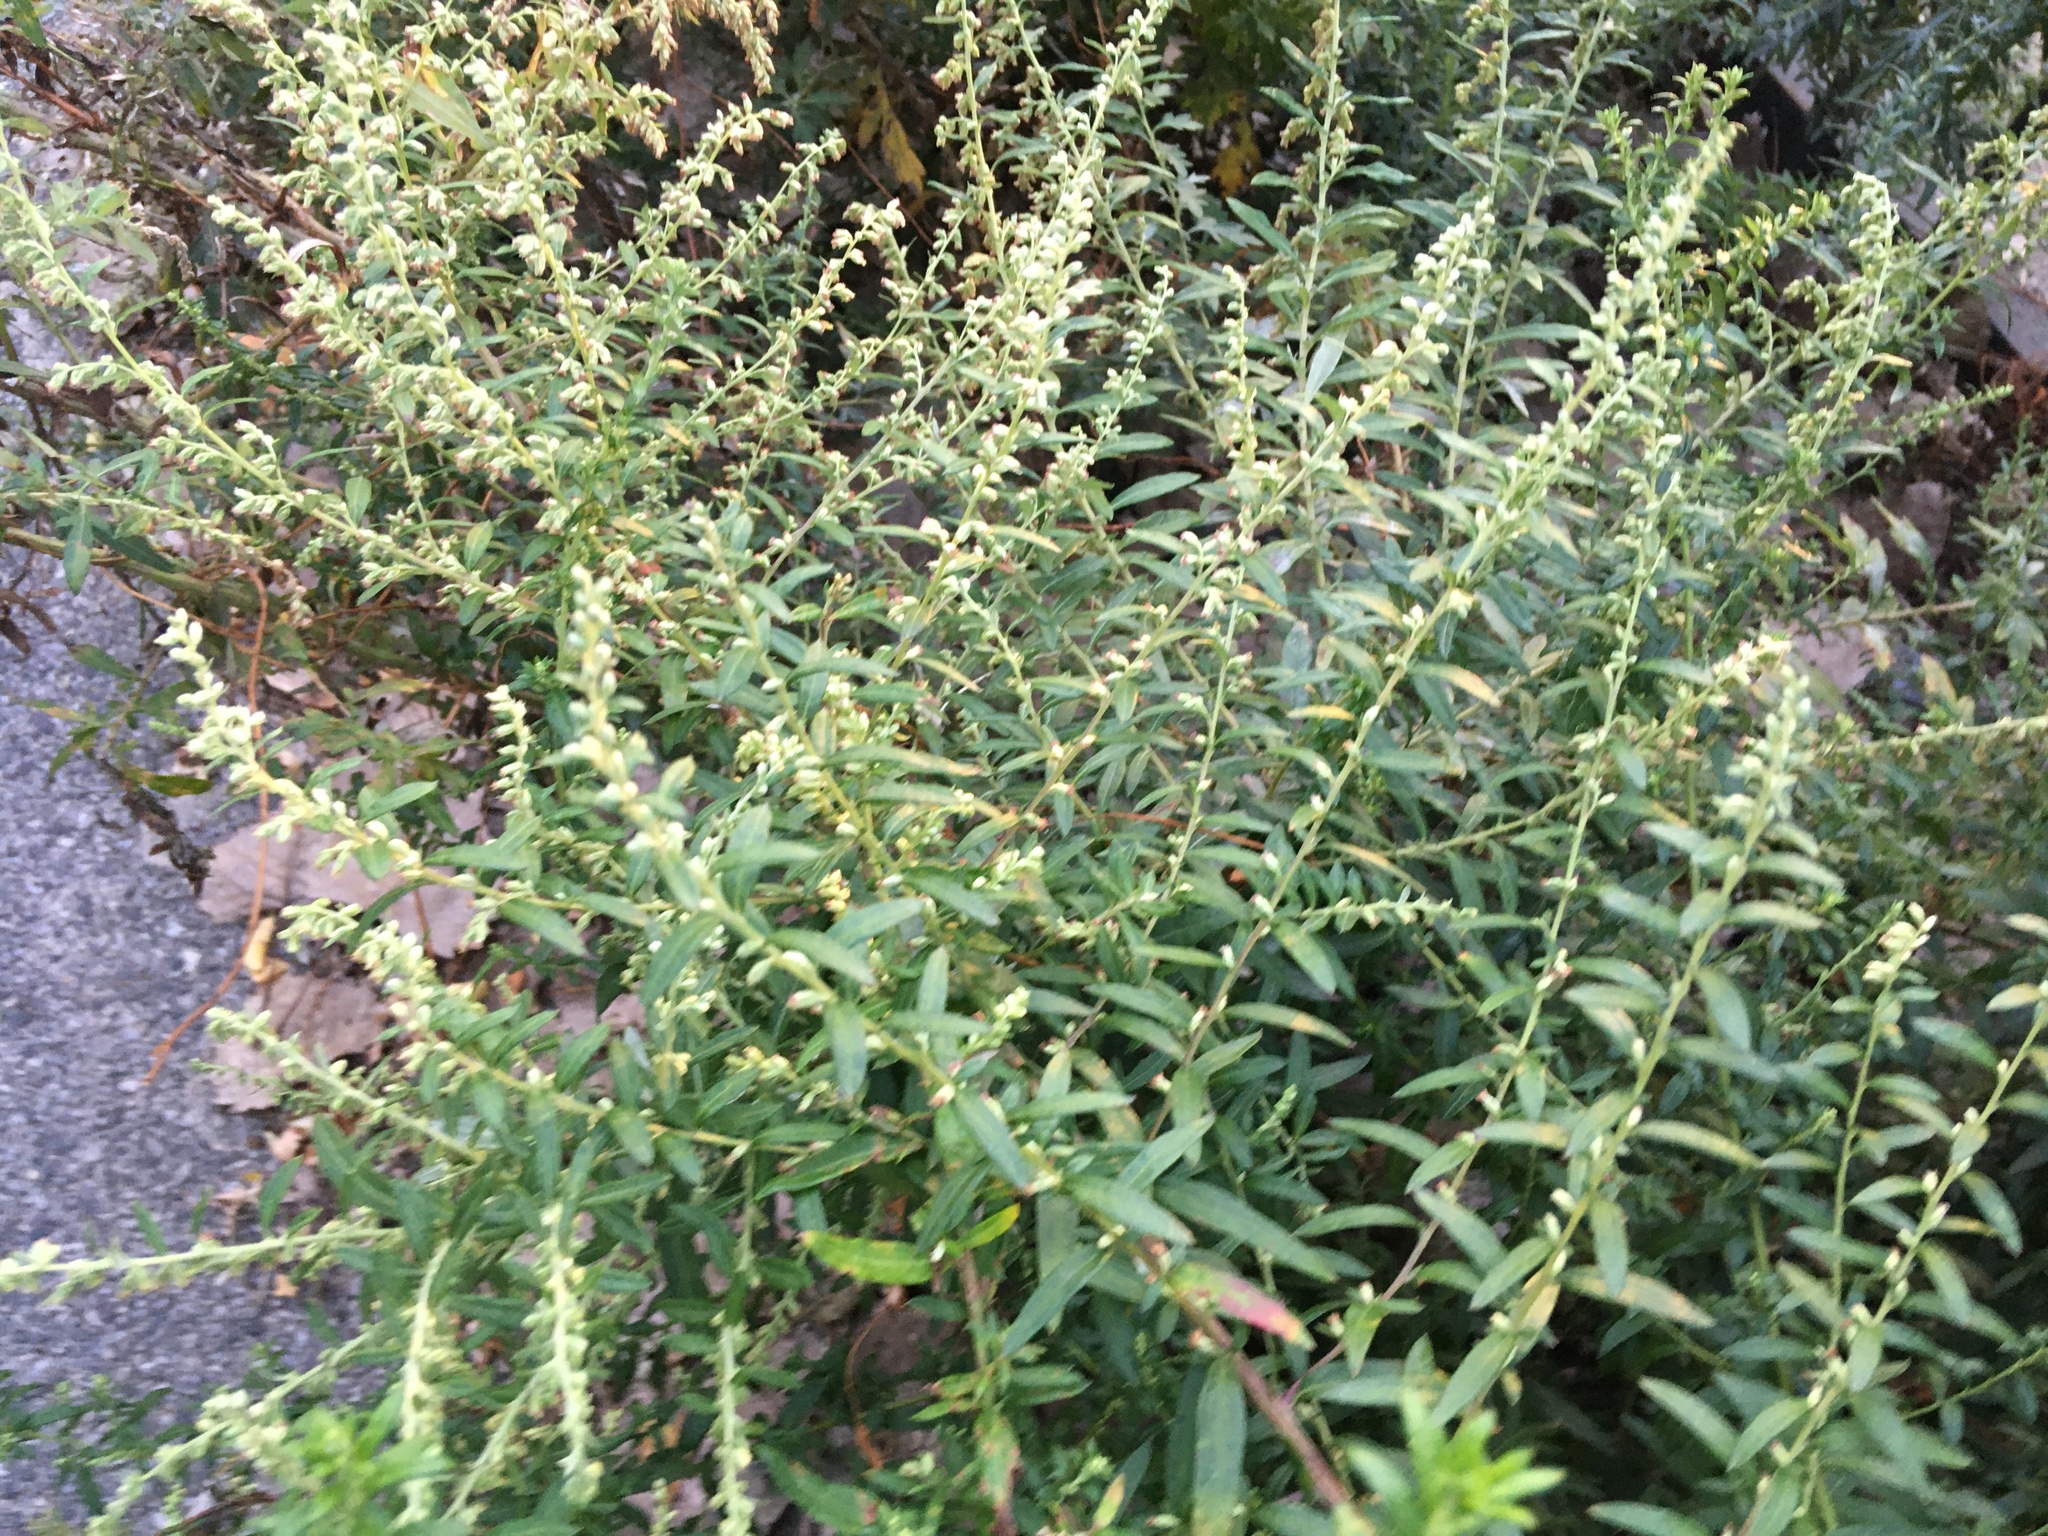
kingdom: Plantae
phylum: Tracheophyta
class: Magnoliopsida
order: Asterales
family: Asteraceae
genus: Artemisia
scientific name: Artemisia vulgaris
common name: Mugwort
